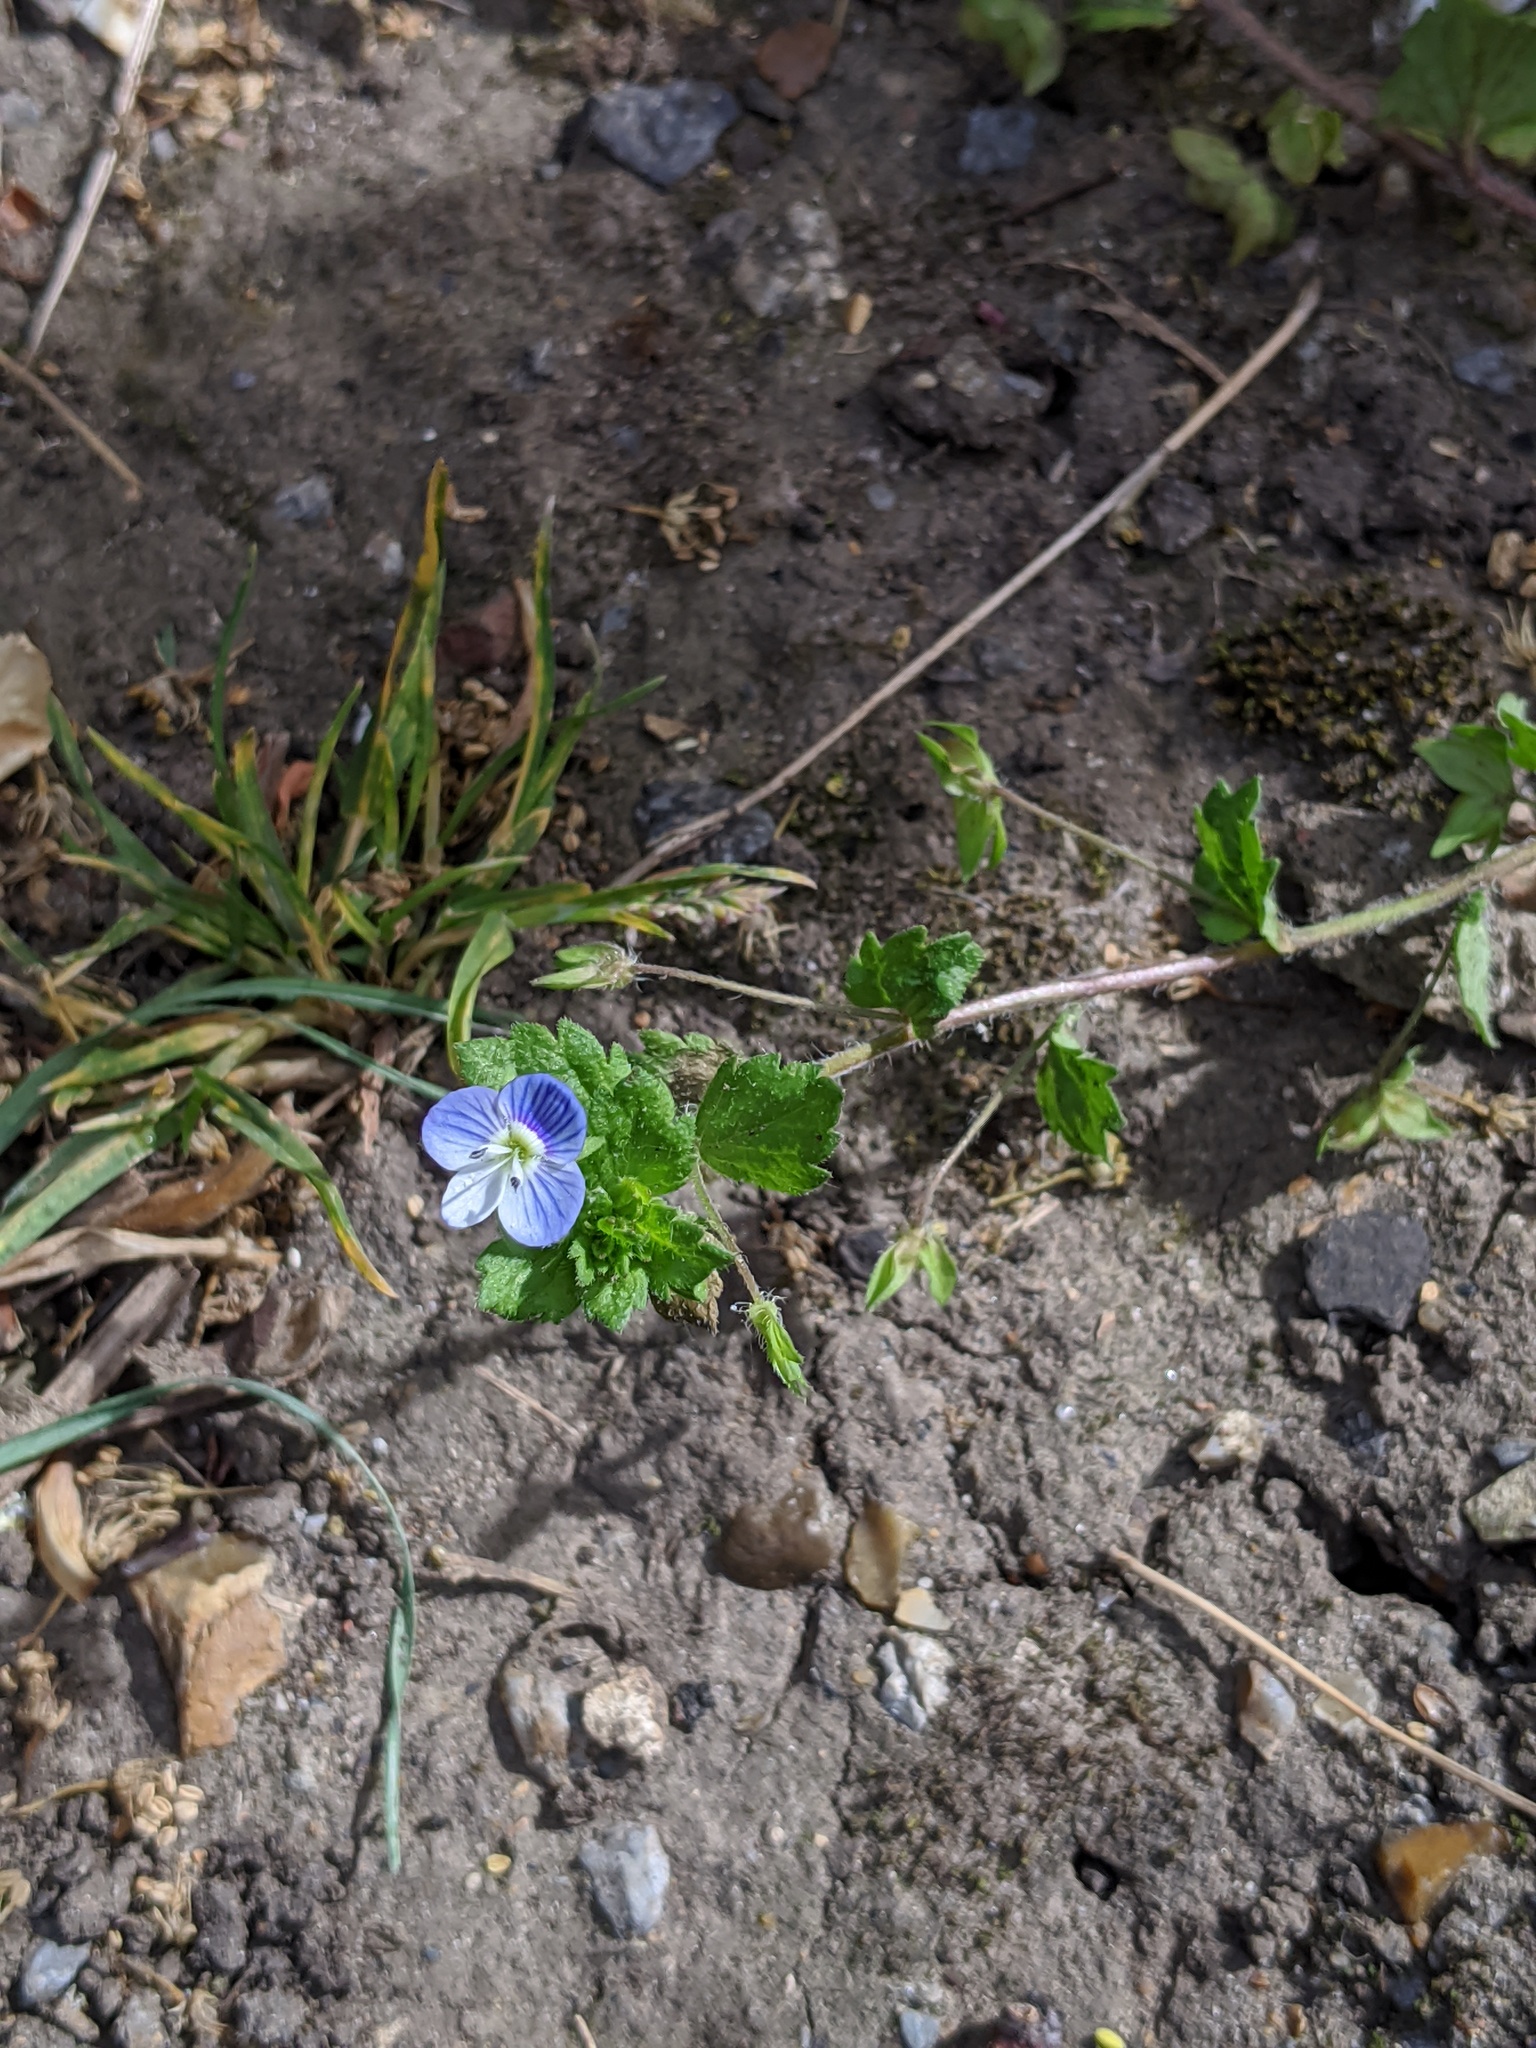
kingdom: Plantae
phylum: Tracheophyta
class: Magnoliopsida
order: Lamiales
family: Plantaginaceae
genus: Veronica
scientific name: Veronica persica
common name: Common field-speedwell
